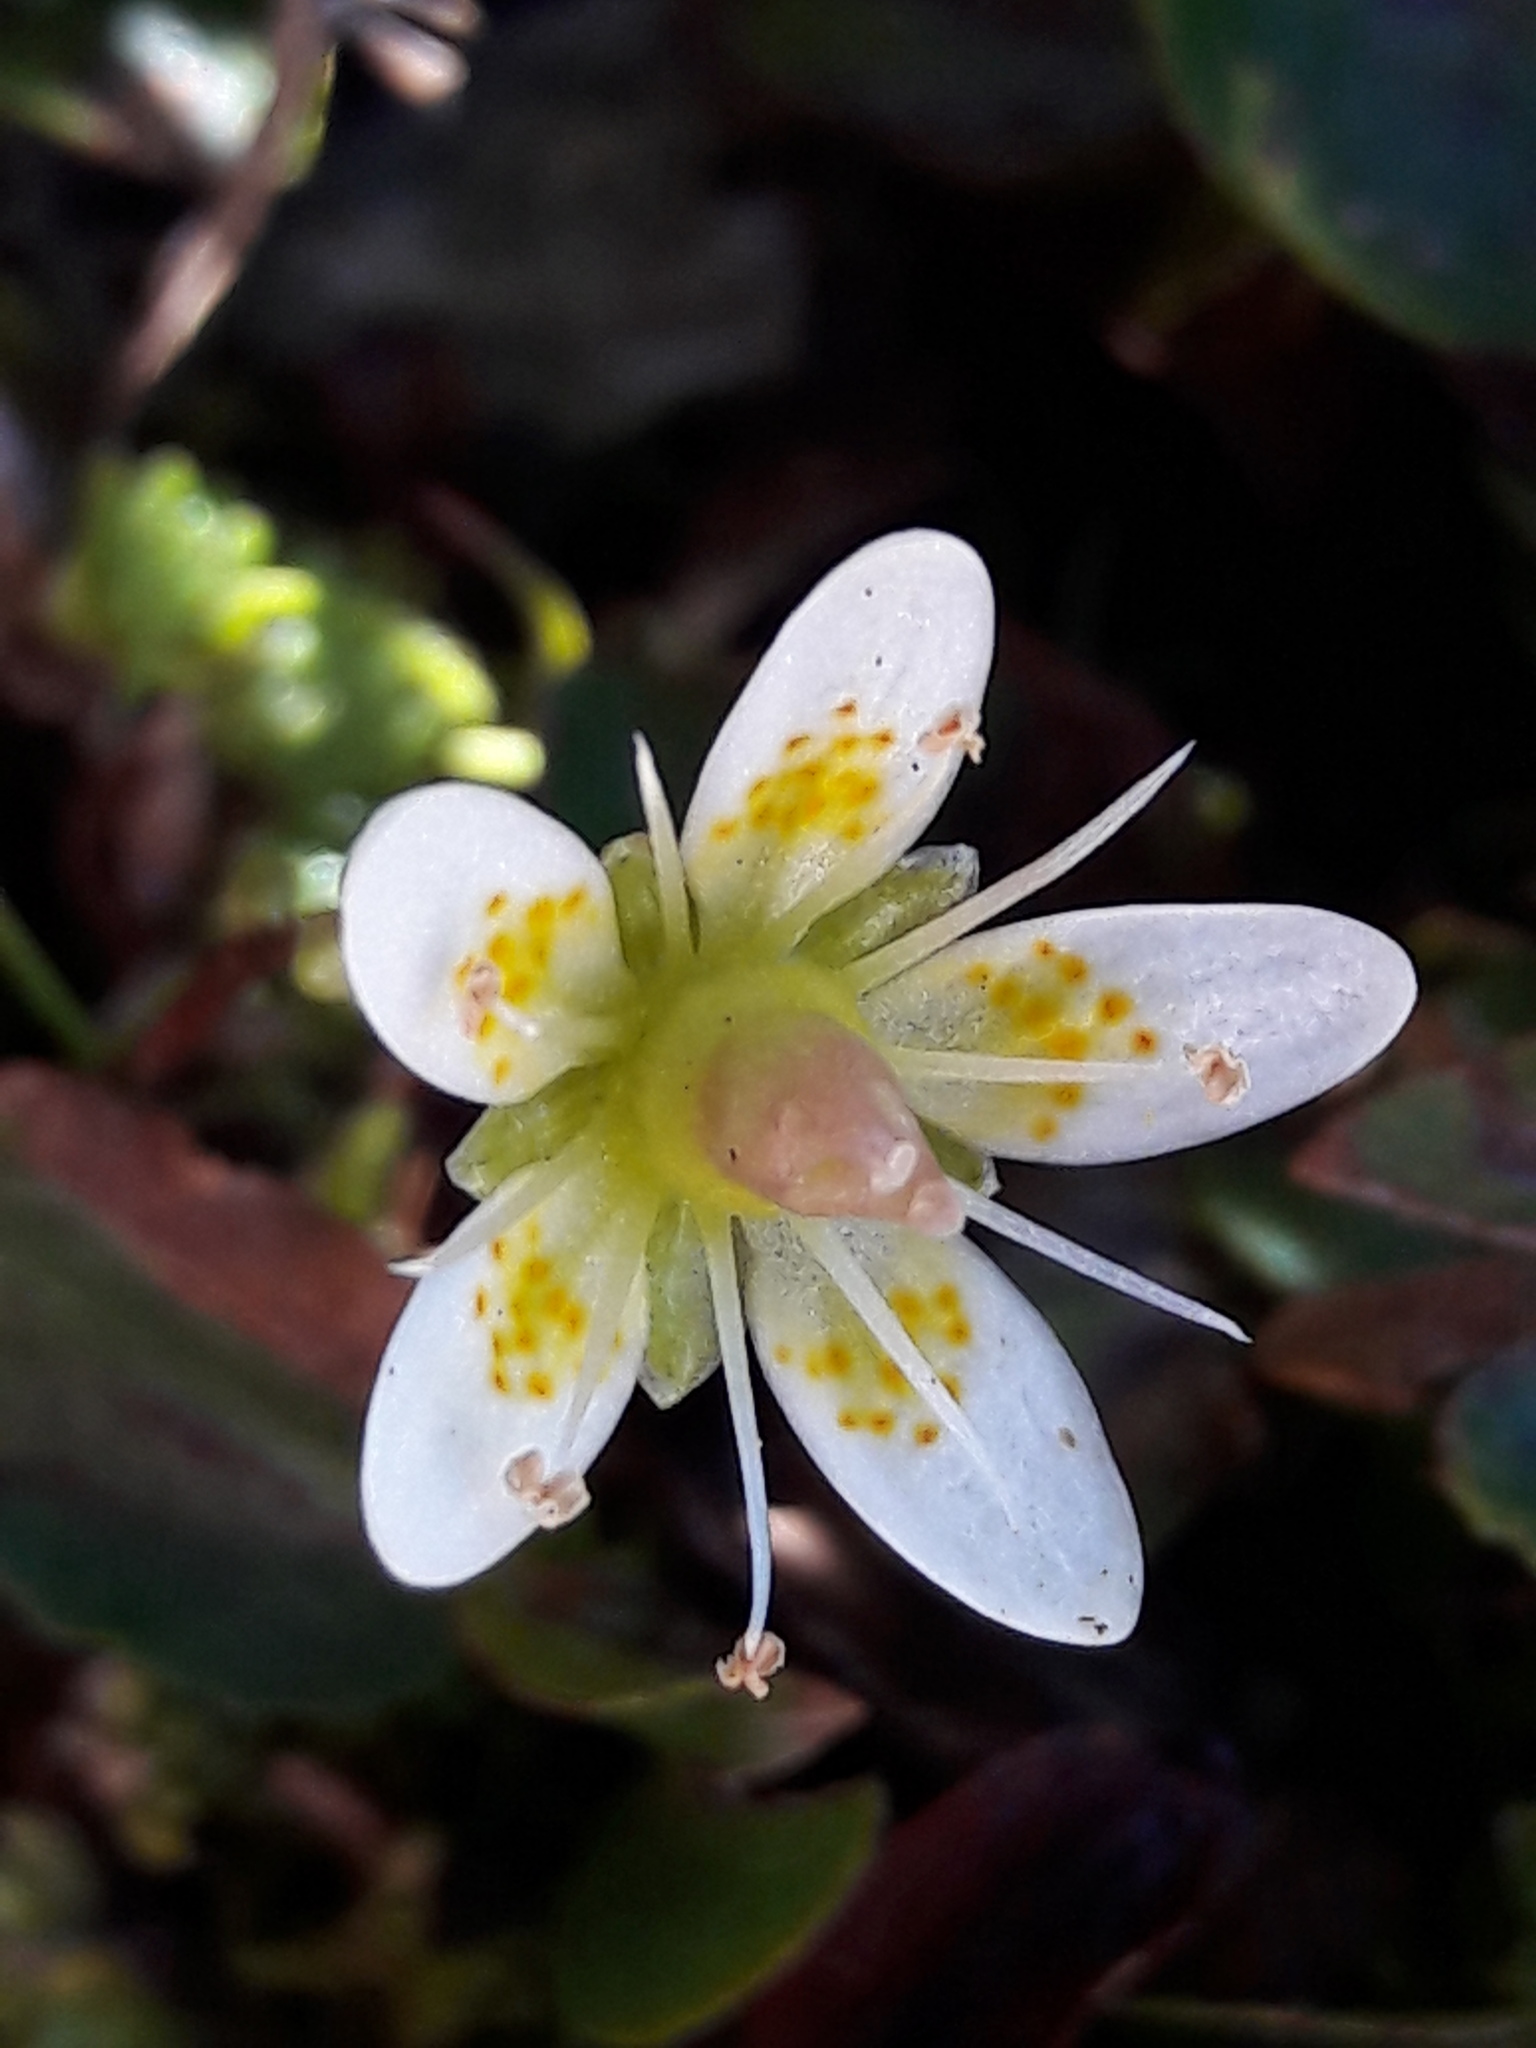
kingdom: Plantae
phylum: Tracheophyta
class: Magnoliopsida
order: Saxifragales
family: Saxifragaceae
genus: Saxifraga
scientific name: Saxifraga bryoides
